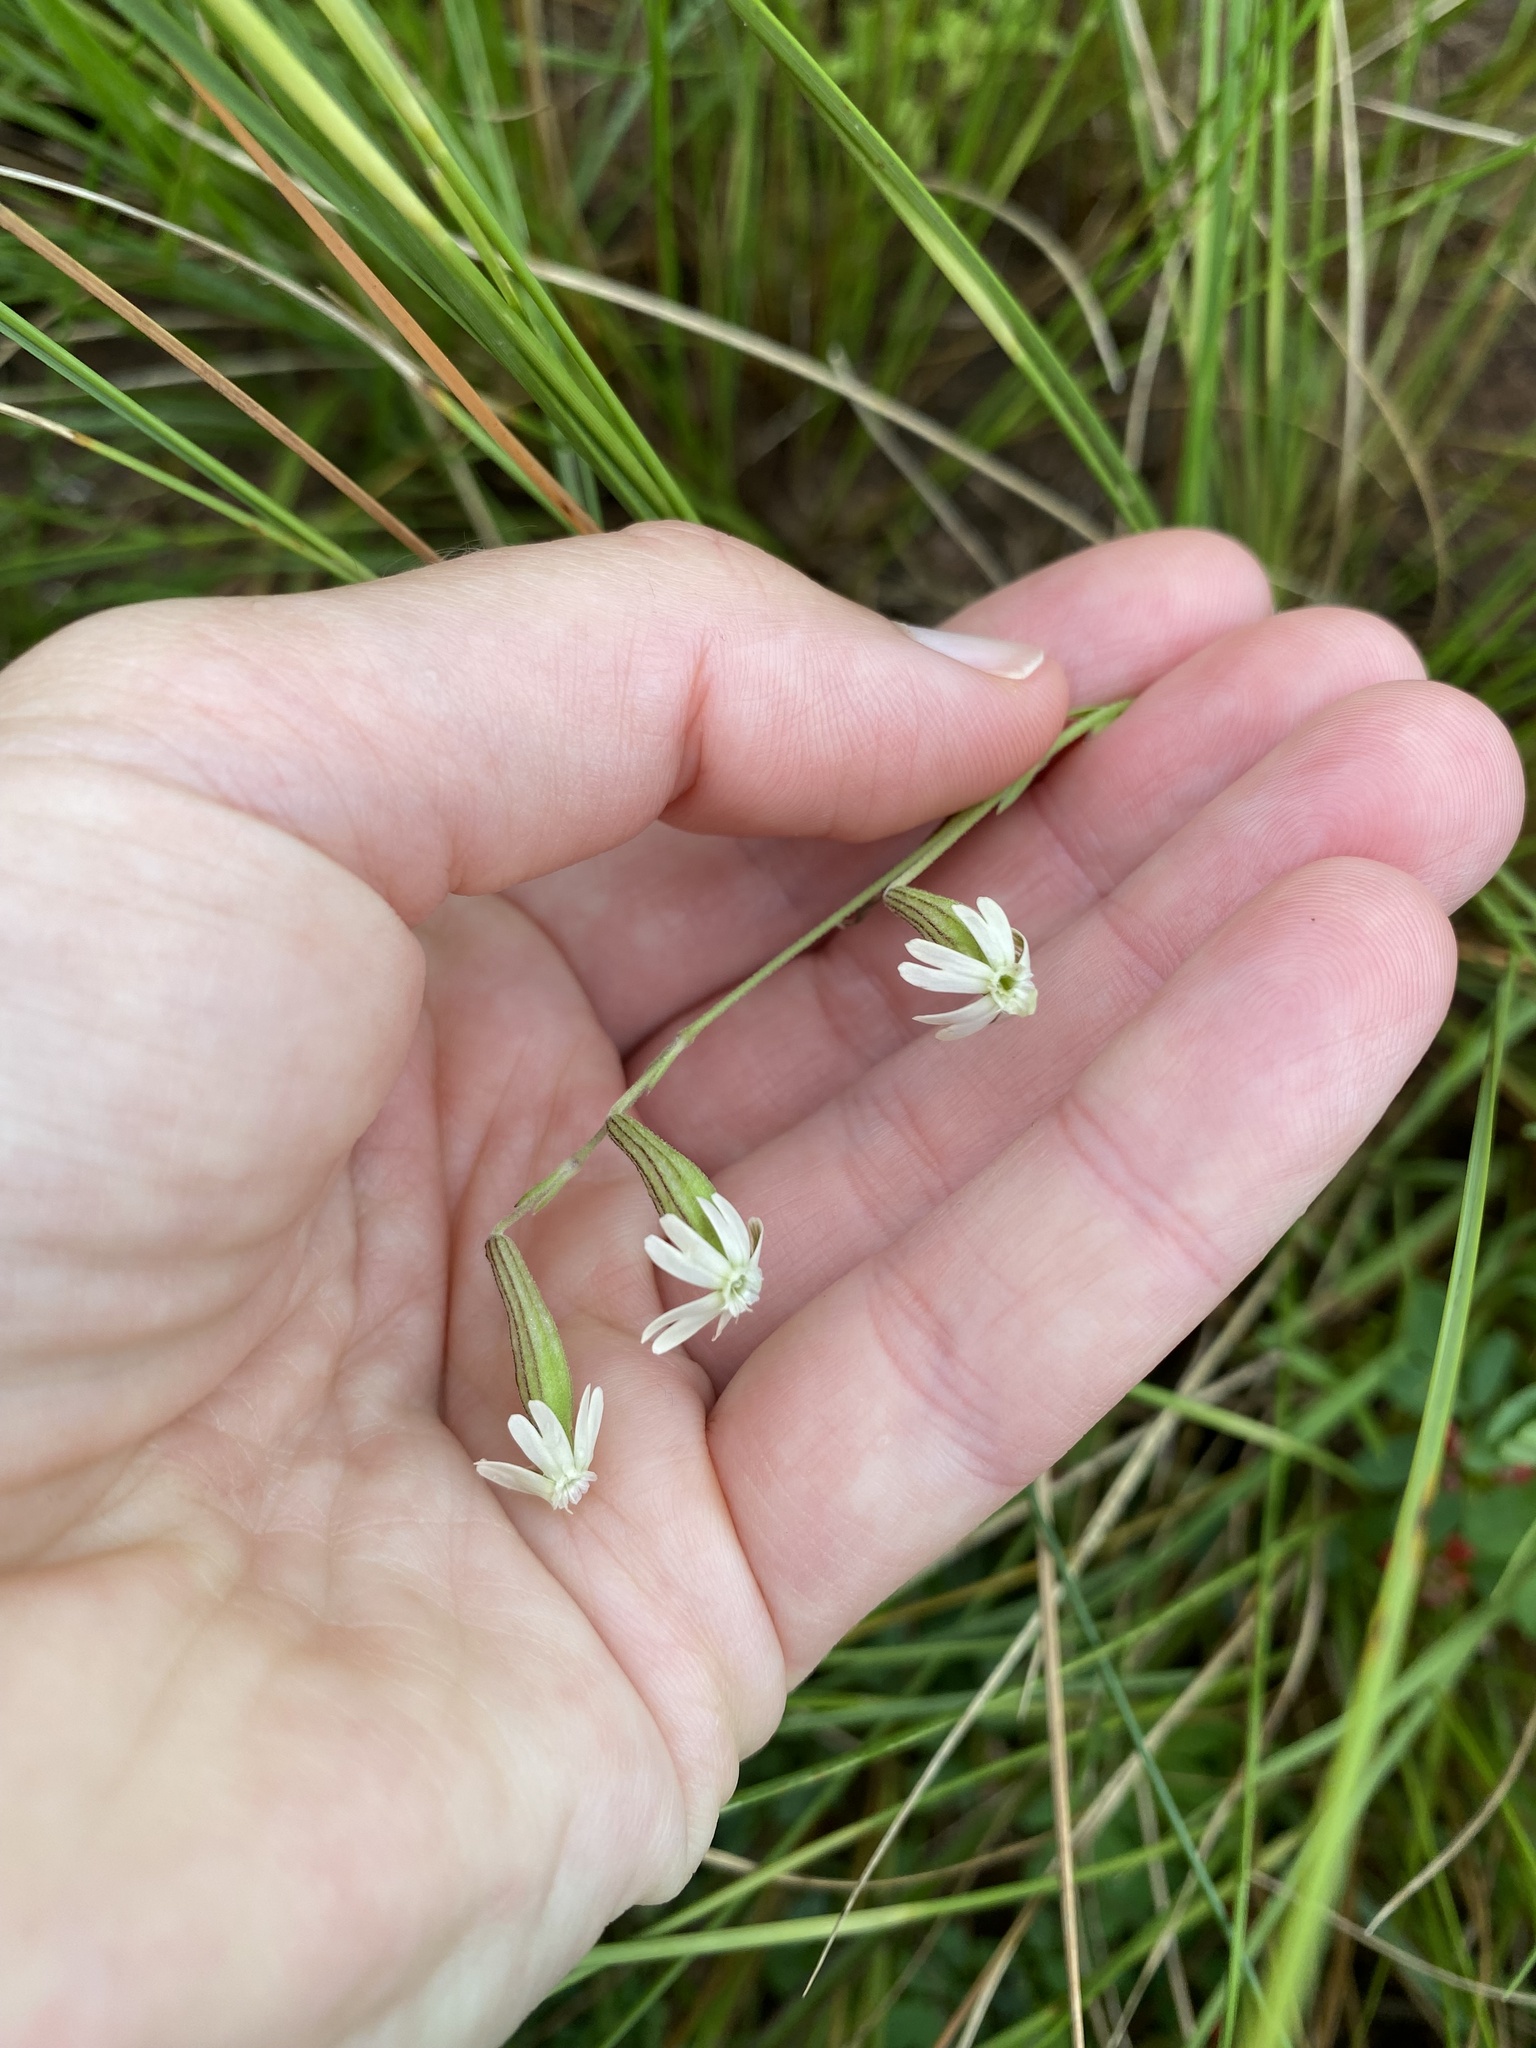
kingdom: Plantae
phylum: Tracheophyta
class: Magnoliopsida
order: Caryophyllales
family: Caryophyllaceae
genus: Silene
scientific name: Silene burchellii
